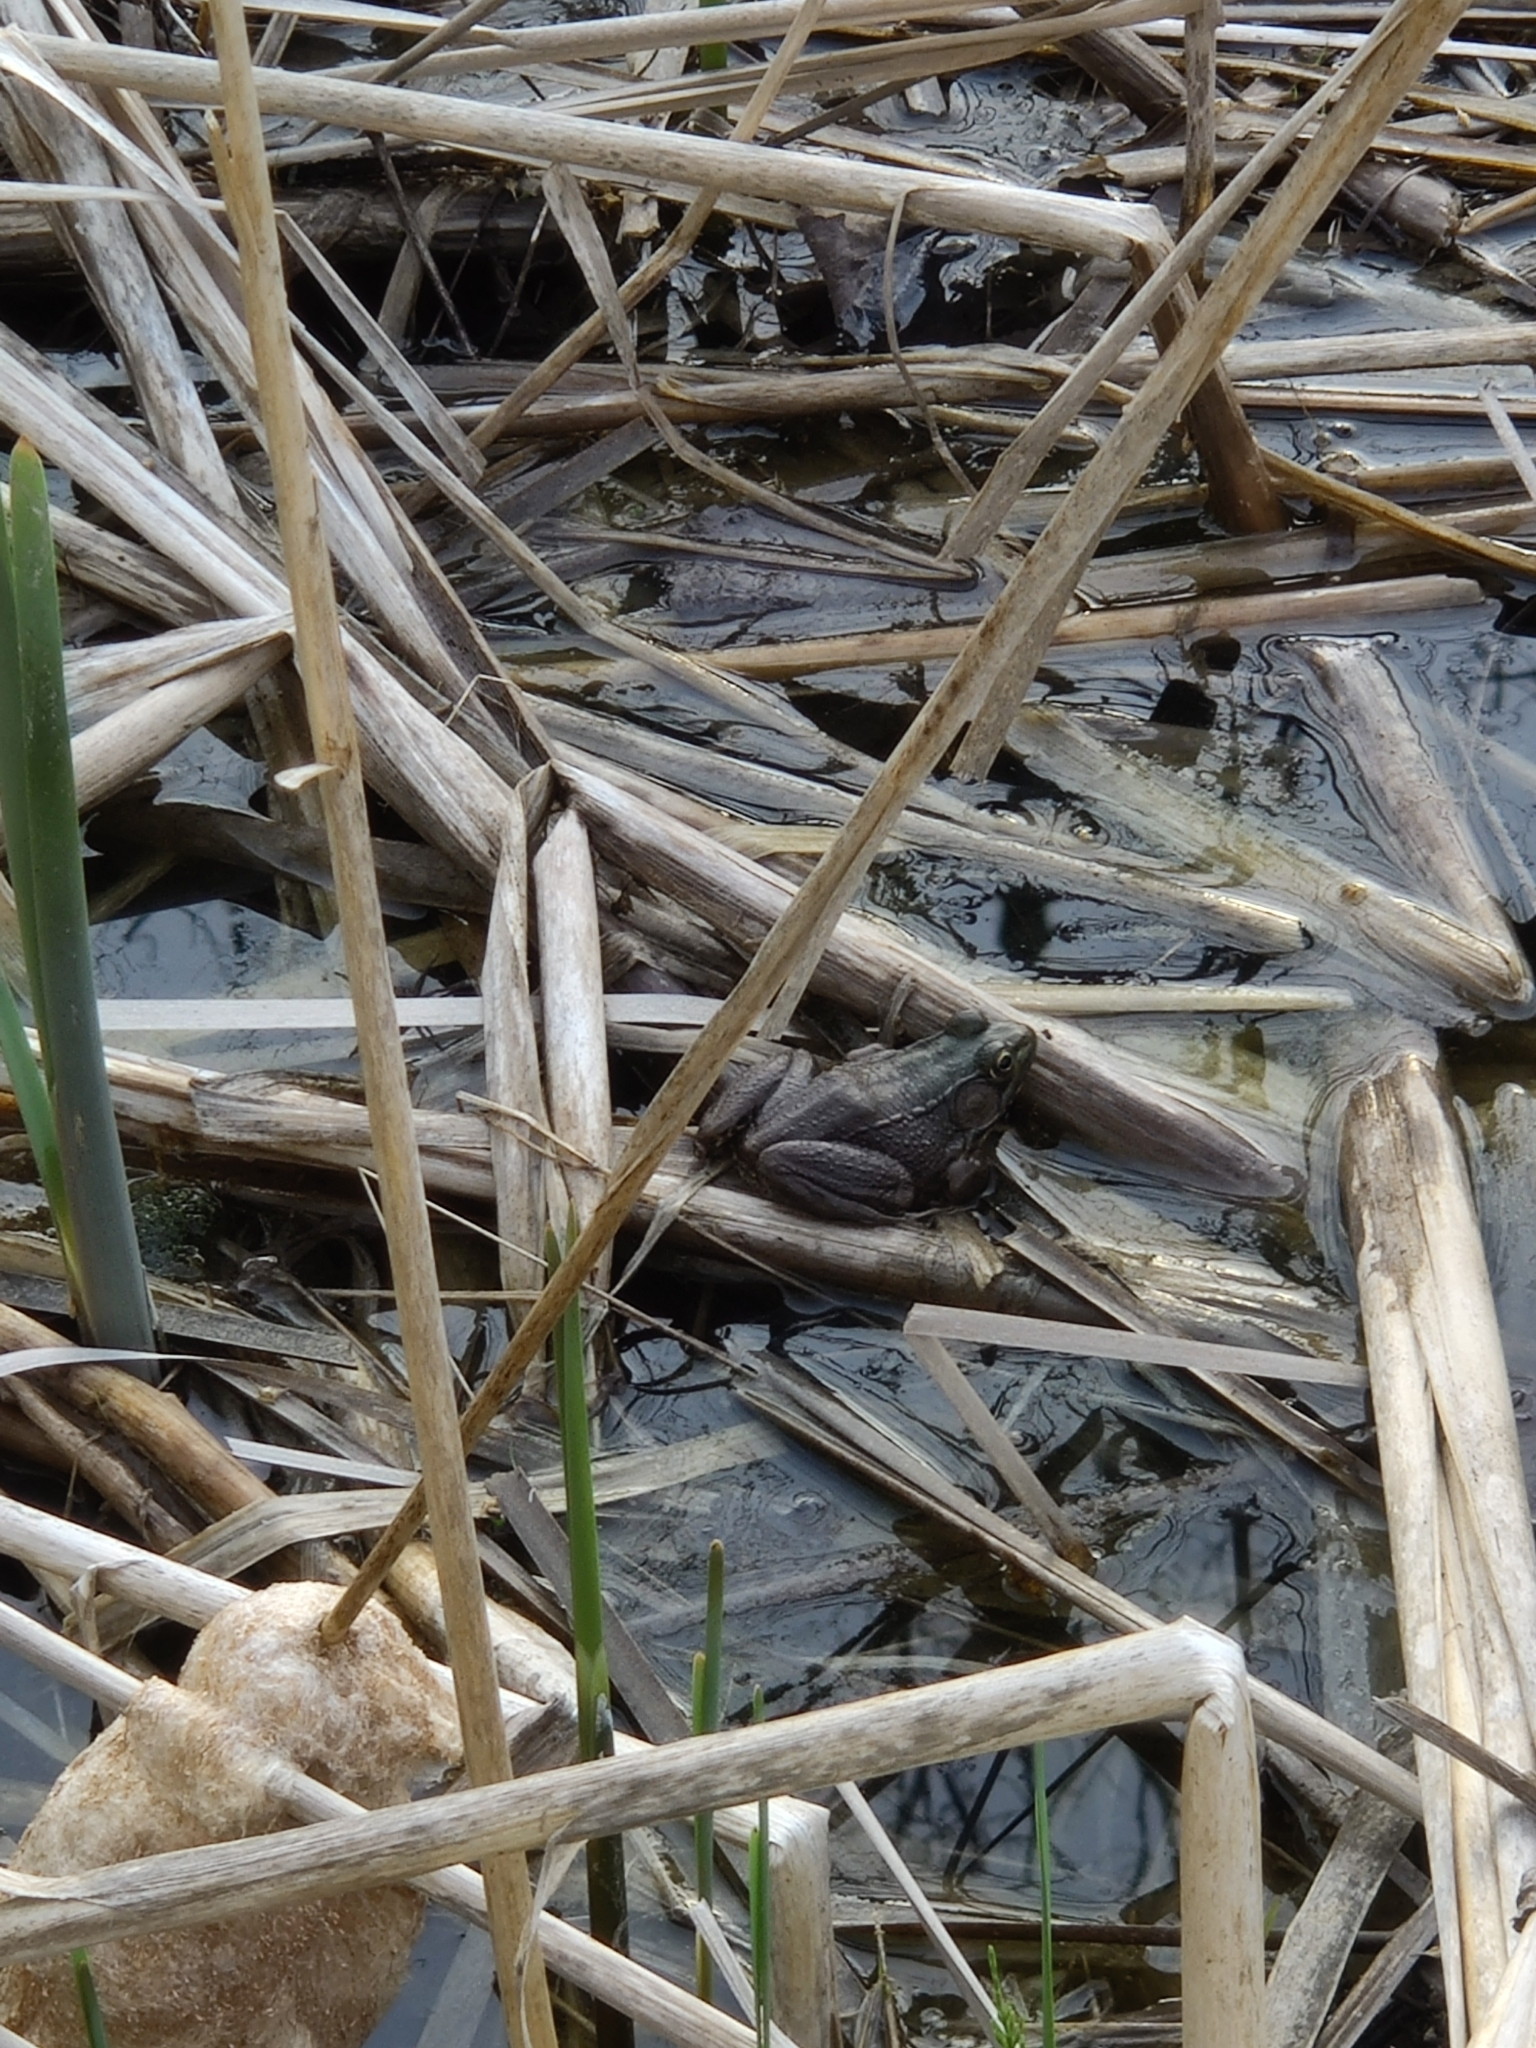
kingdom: Animalia
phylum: Chordata
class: Amphibia
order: Anura
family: Ranidae
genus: Lithobates
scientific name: Lithobates clamitans
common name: Green frog
